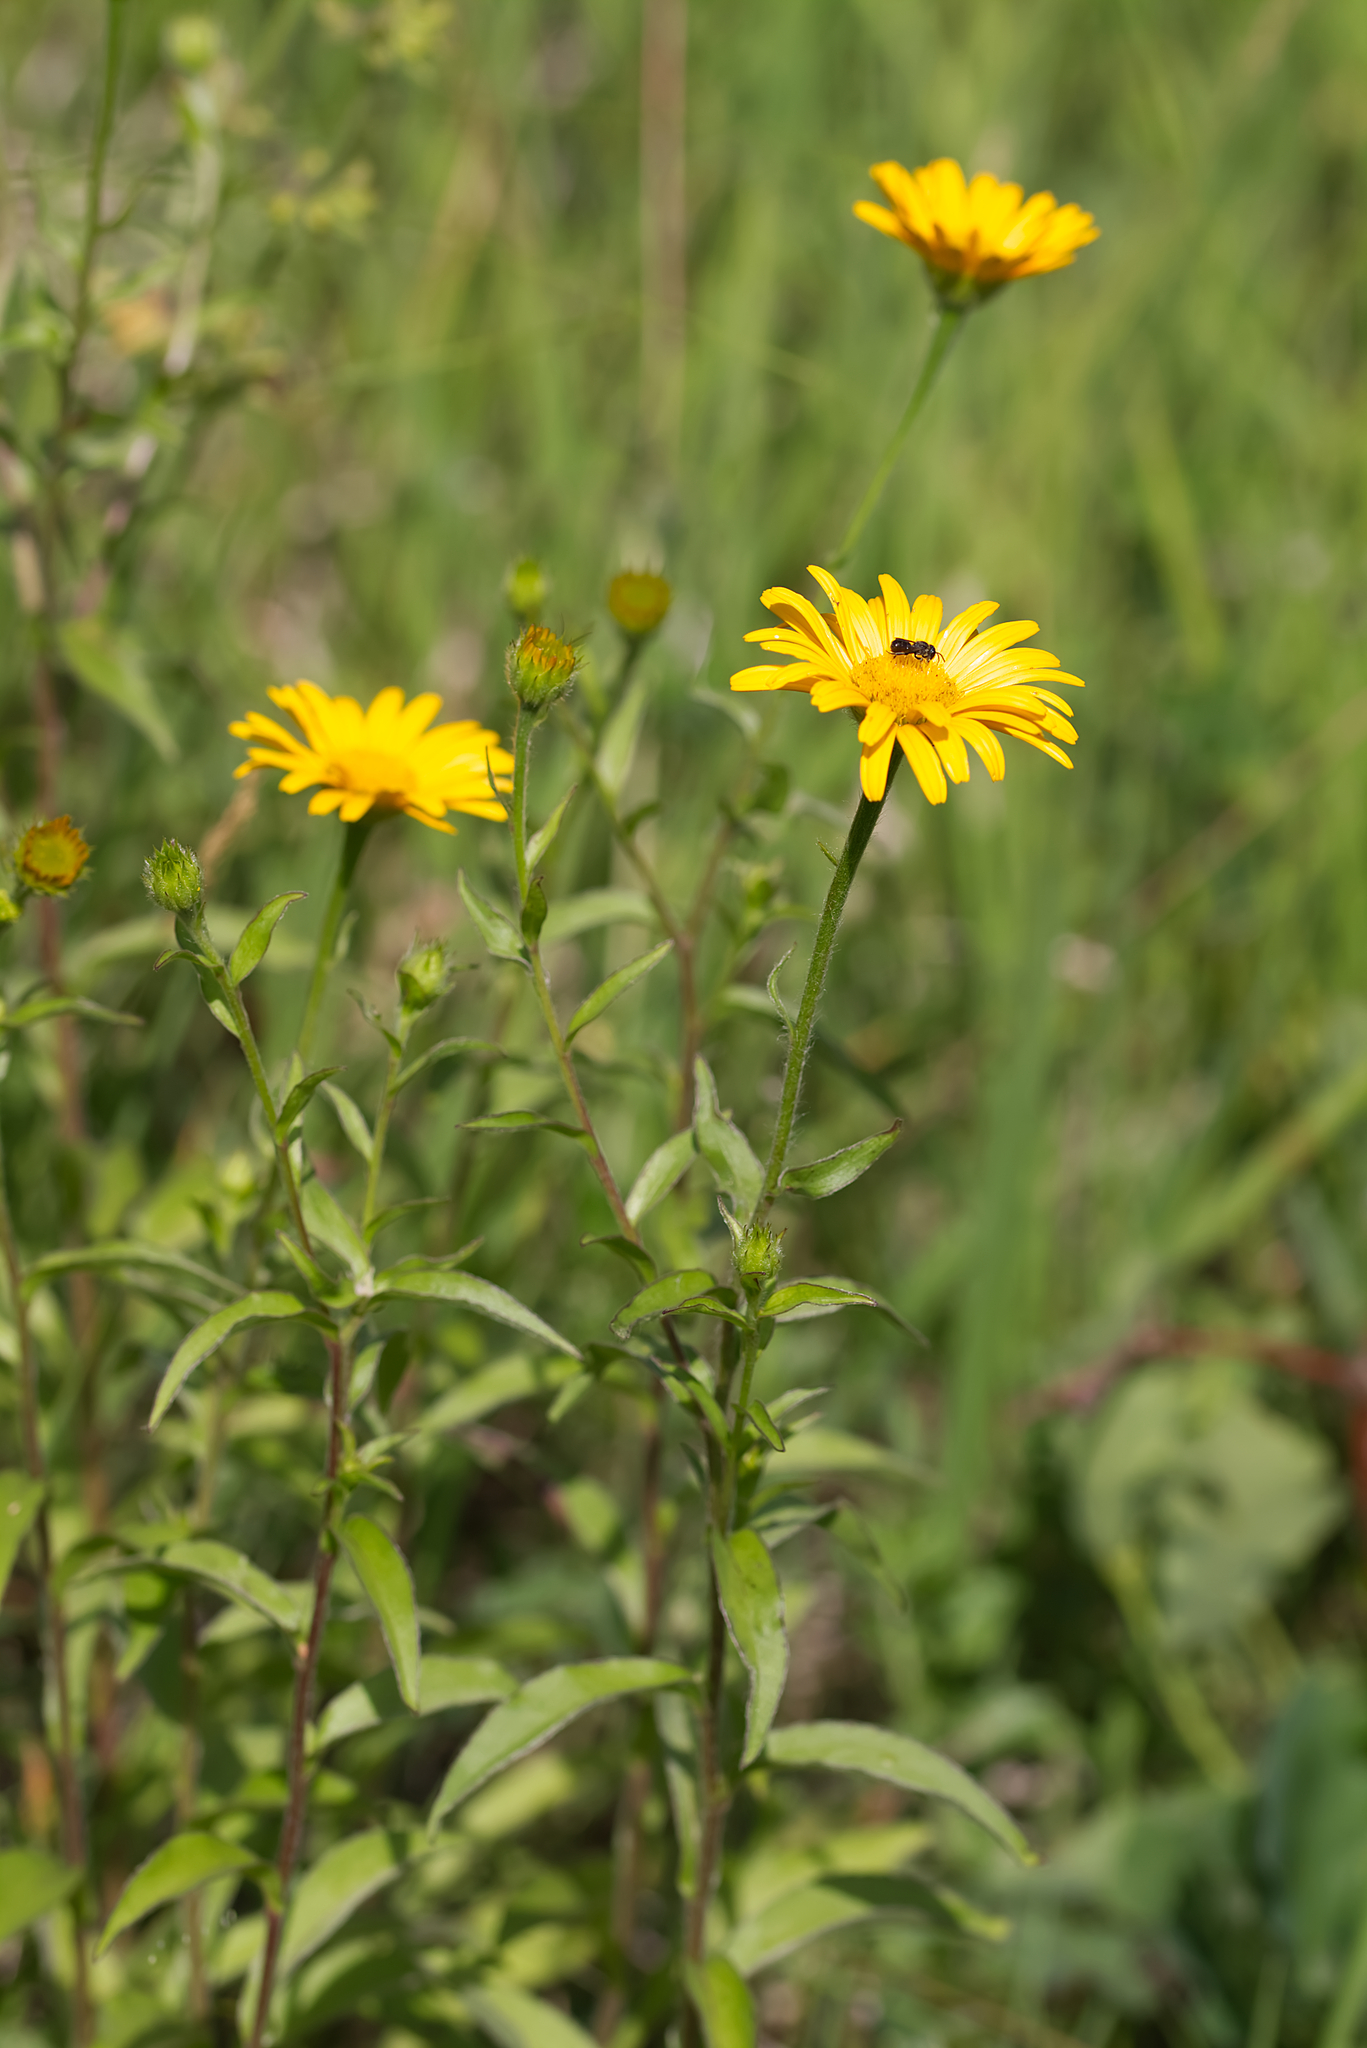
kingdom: Plantae
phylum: Tracheophyta
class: Magnoliopsida
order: Asterales
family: Asteraceae
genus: Buphthalmum
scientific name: Buphthalmum salicifolium
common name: Willow-leaved yellow-oxeye
